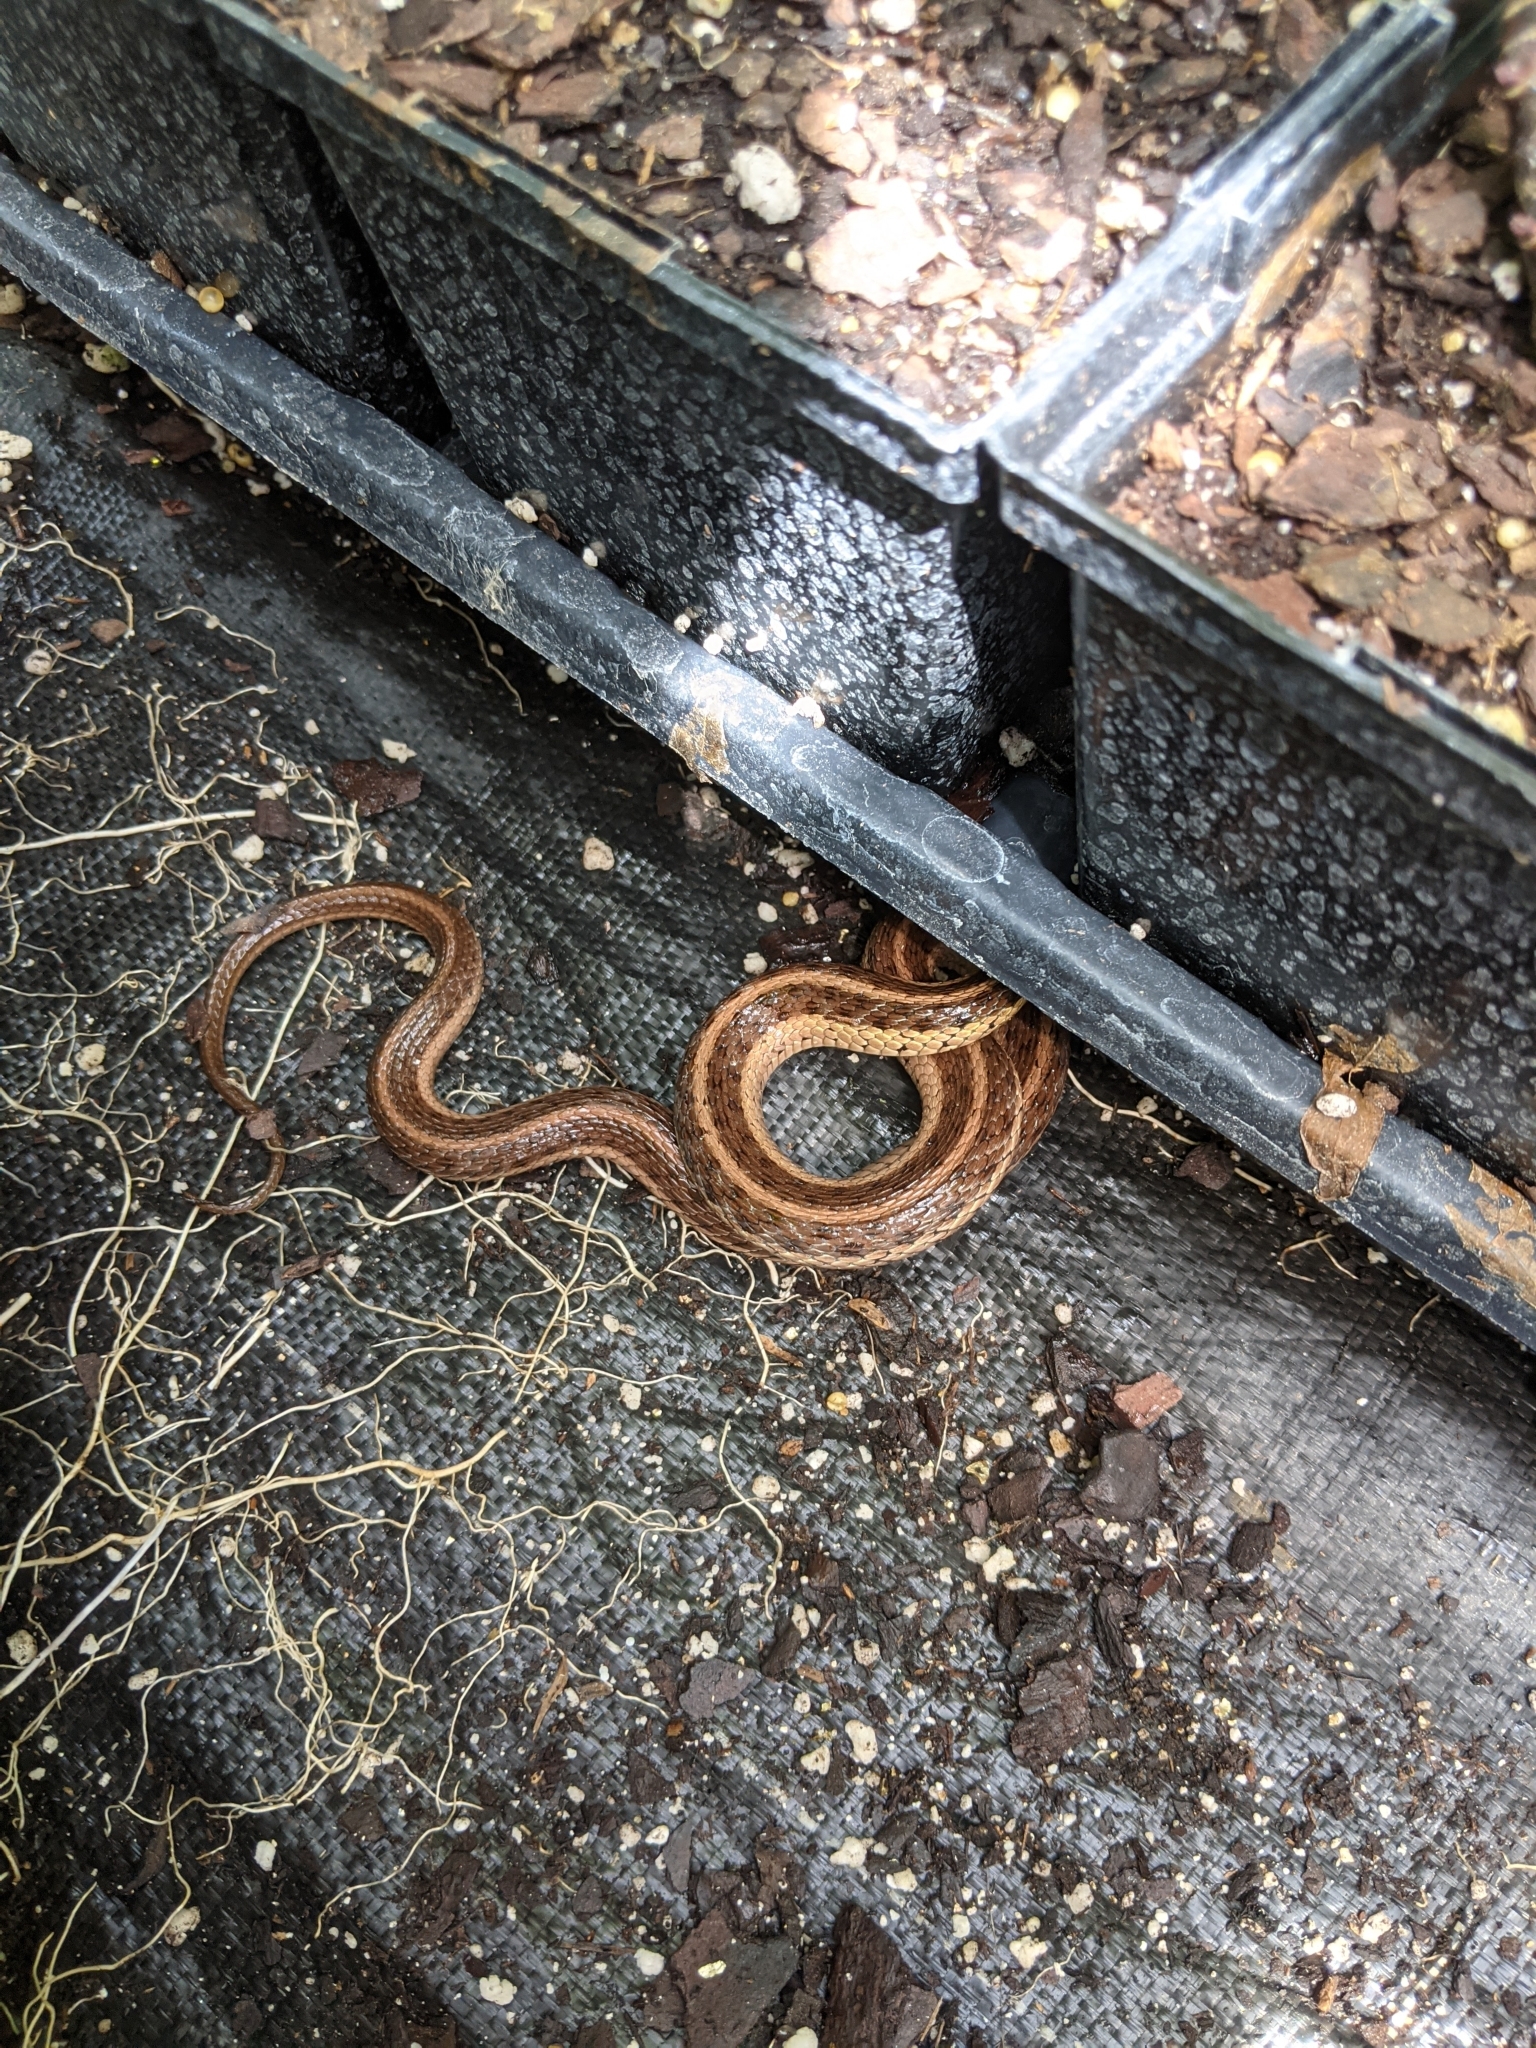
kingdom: Animalia
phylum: Chordata
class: Squamata
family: Colubridae
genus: Thamnophis
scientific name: Thamnophis sirtalis
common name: Common garter snake
